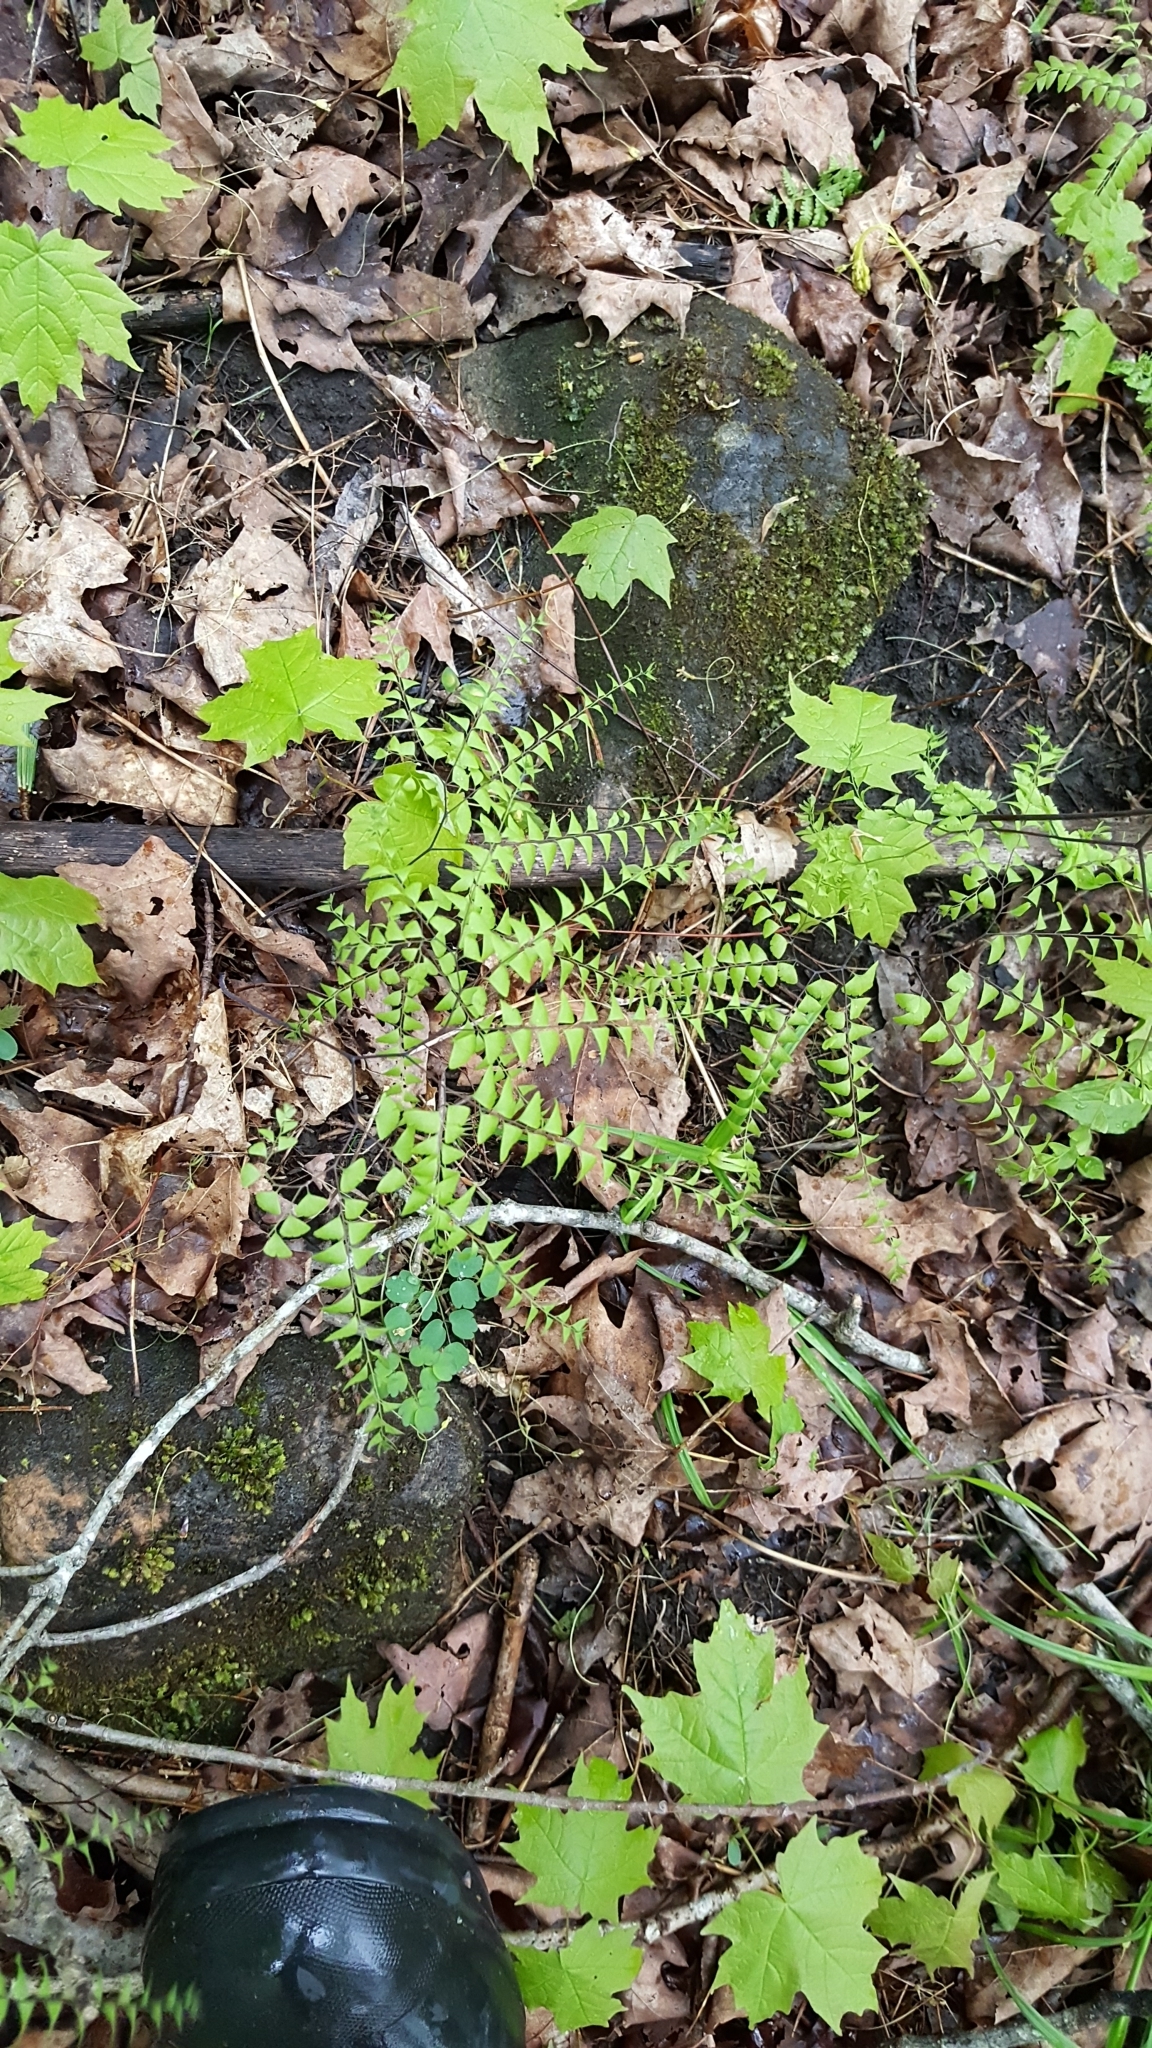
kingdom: Plantae
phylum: Tracheophyta
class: Polypodiopsida
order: Polypodiales
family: Pteridaceae
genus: Adiantum
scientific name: Adiantum pedatum
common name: Five-finger fern
